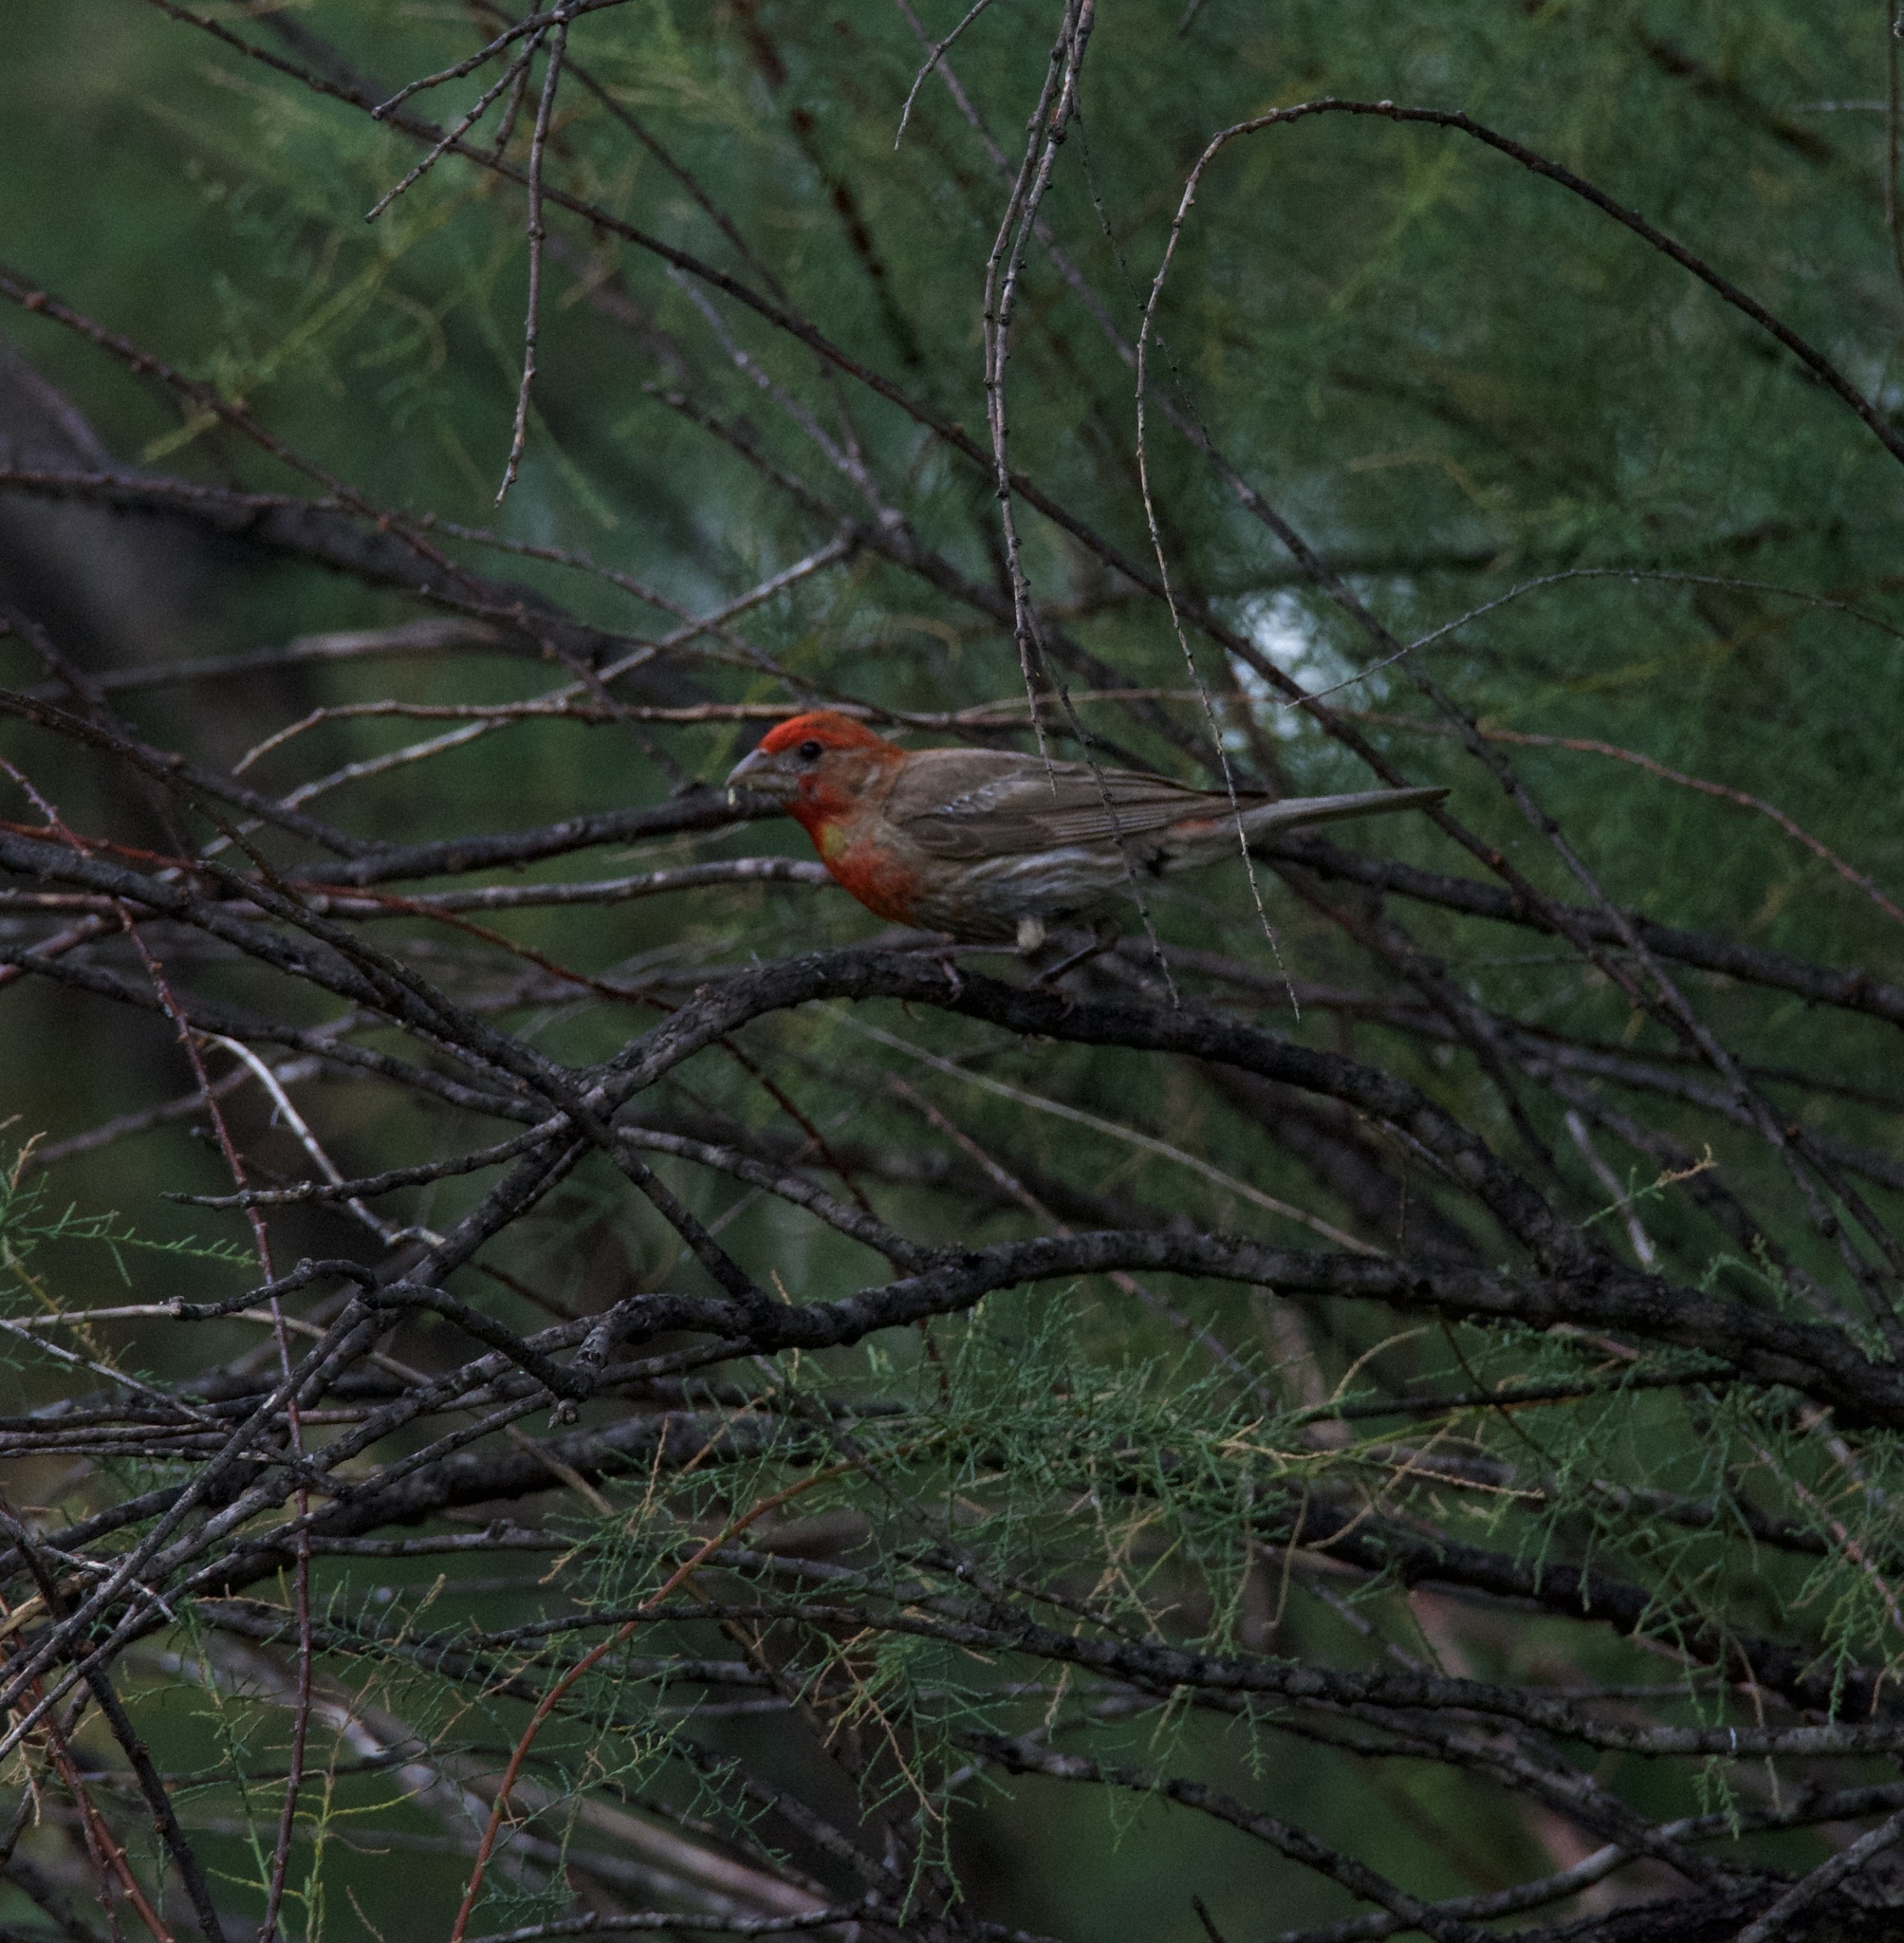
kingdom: Animalia
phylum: Chordata
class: Aves
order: Passeriformes
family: Fringillidae
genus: Haemorhous
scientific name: Haemorhous mexicanus
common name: House finch
